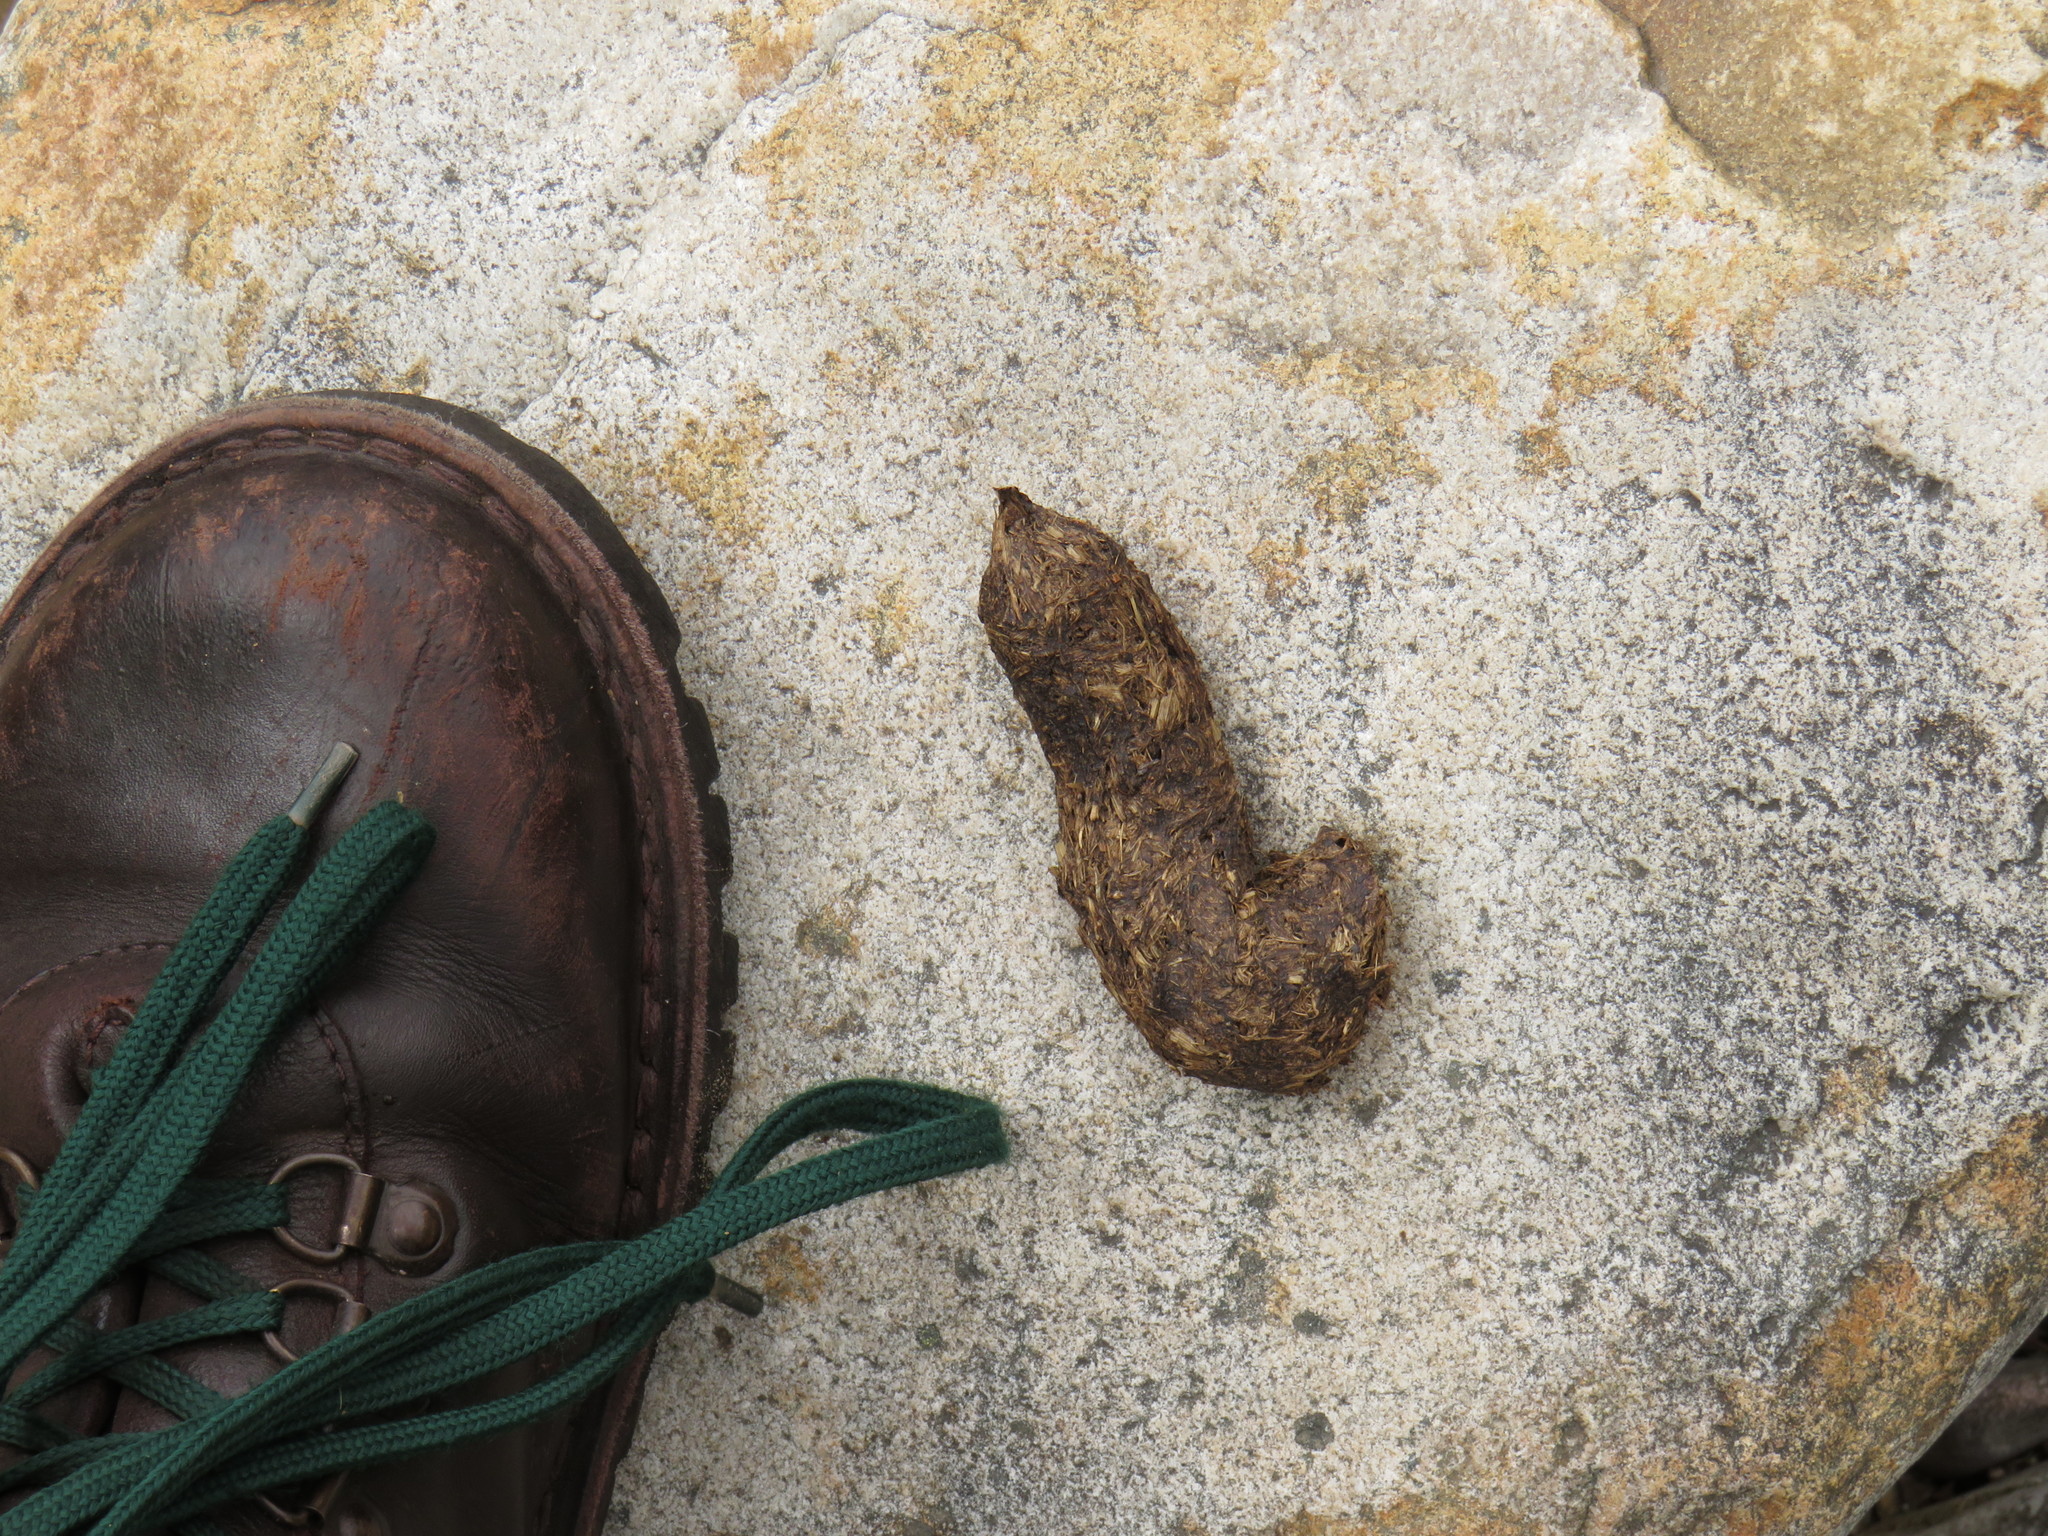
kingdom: Animalia
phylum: Chordata
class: Mammalia
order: Primates
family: Cercopithecidae
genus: Papio
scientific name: Papio ursinus
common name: Chacma baboon
